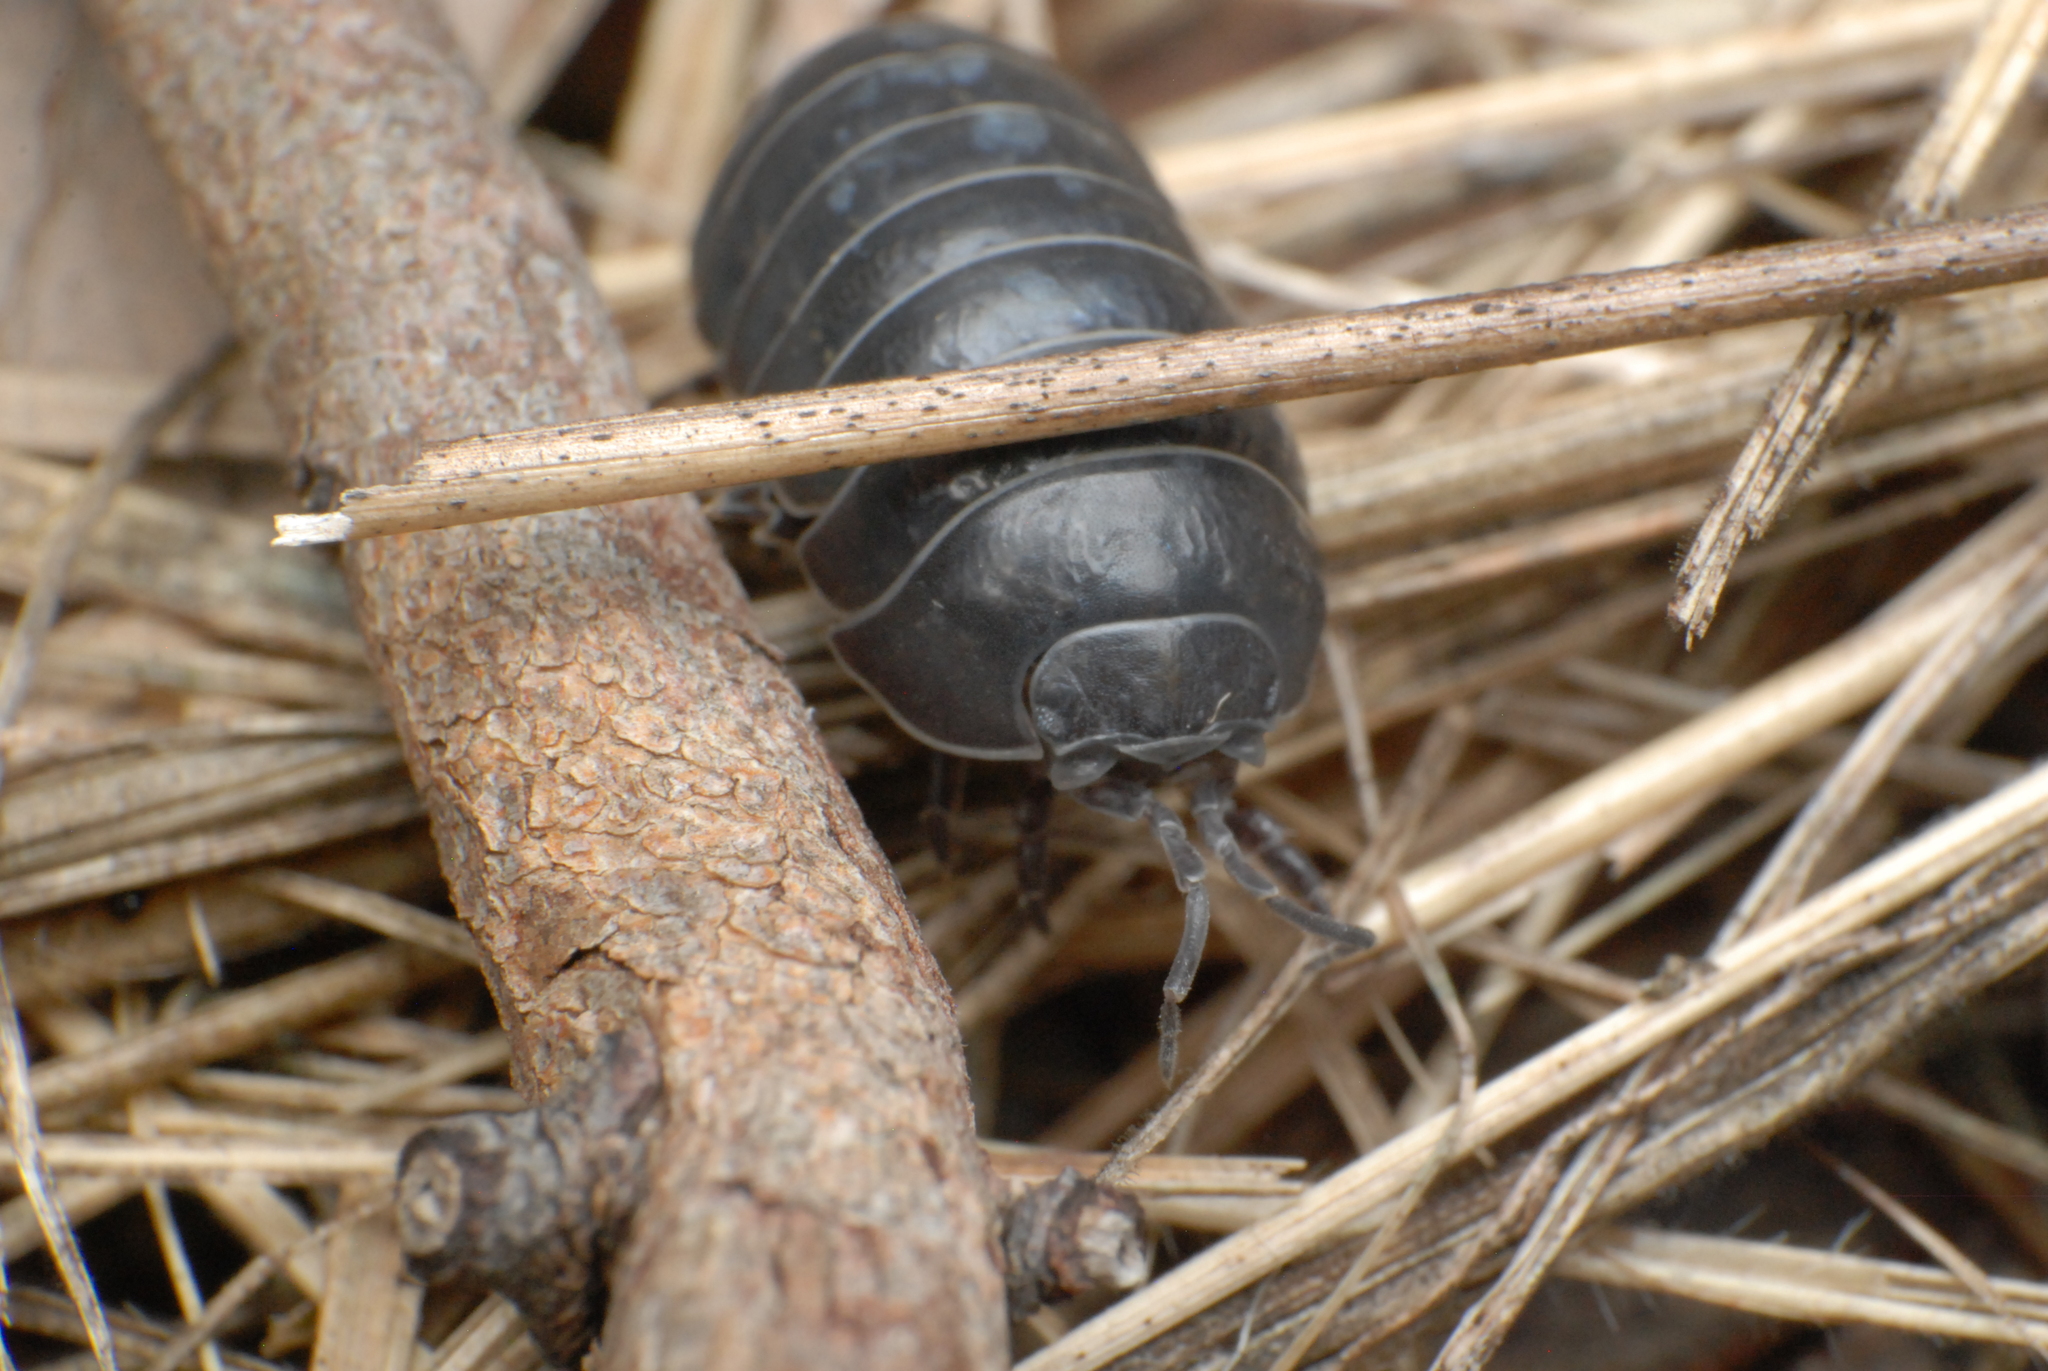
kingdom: Animalia
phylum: Arthropoda
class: Malacostraca
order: Isopoda
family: Armadillidiidae
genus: Armadillidium
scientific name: Armadillidium vulgare
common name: Common pill woodlouse
